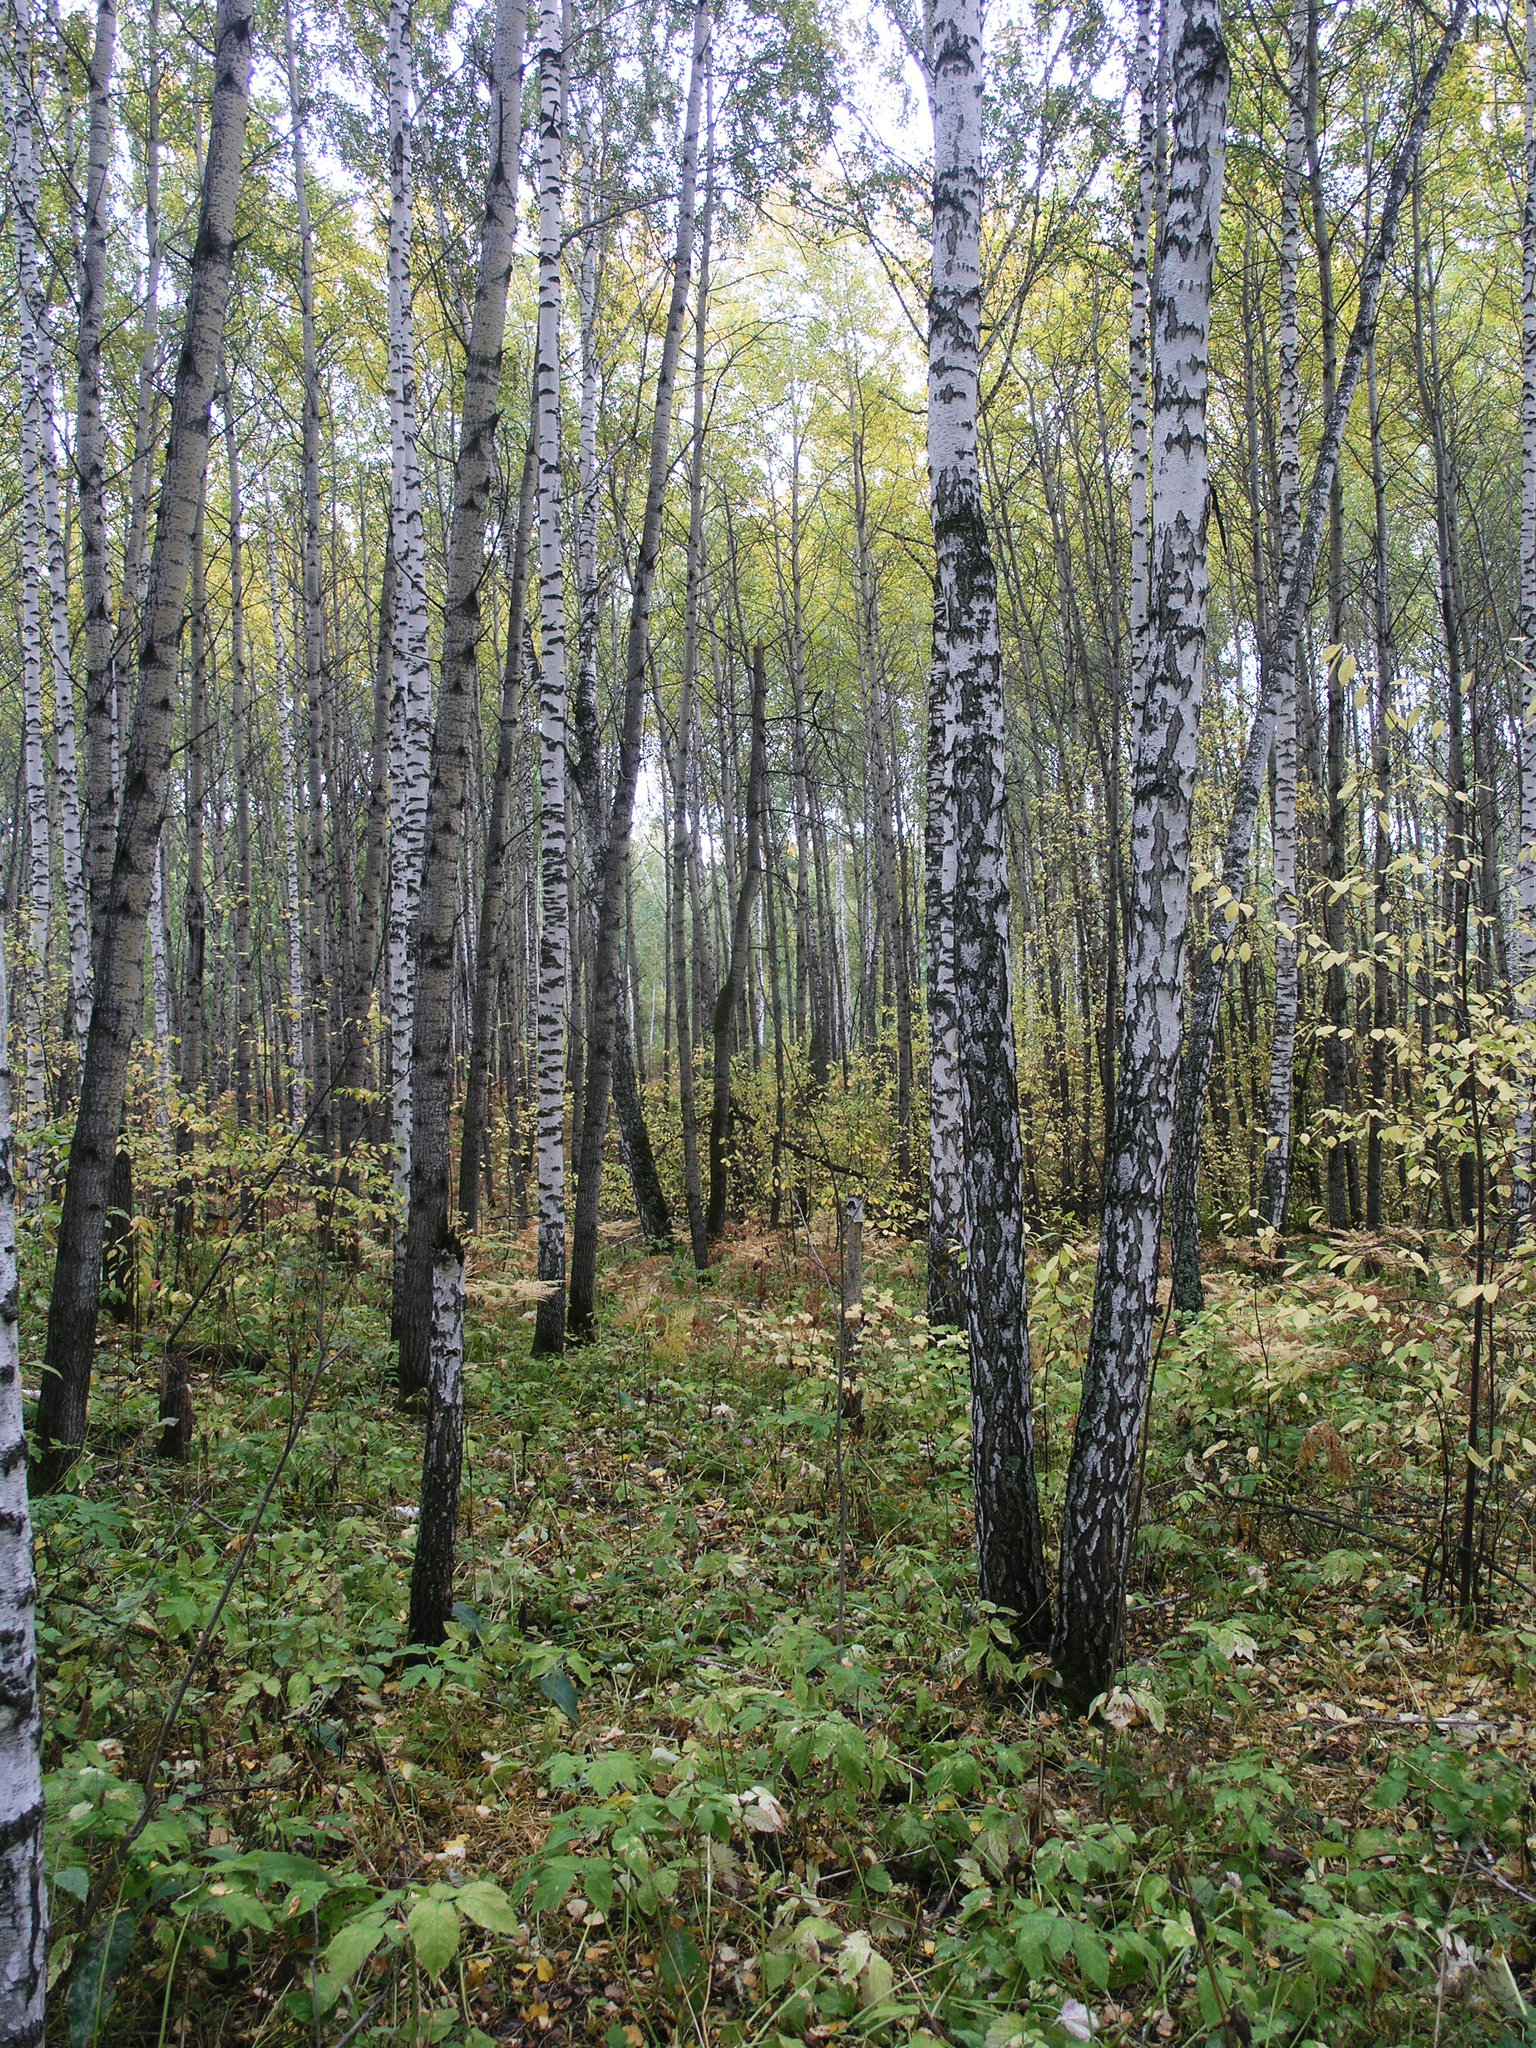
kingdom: Plantae
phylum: Tracheophyta
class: Magnoliopsida
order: Fagales
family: Betulaceae
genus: Betula
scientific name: Betula pendula
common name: Silver birch
